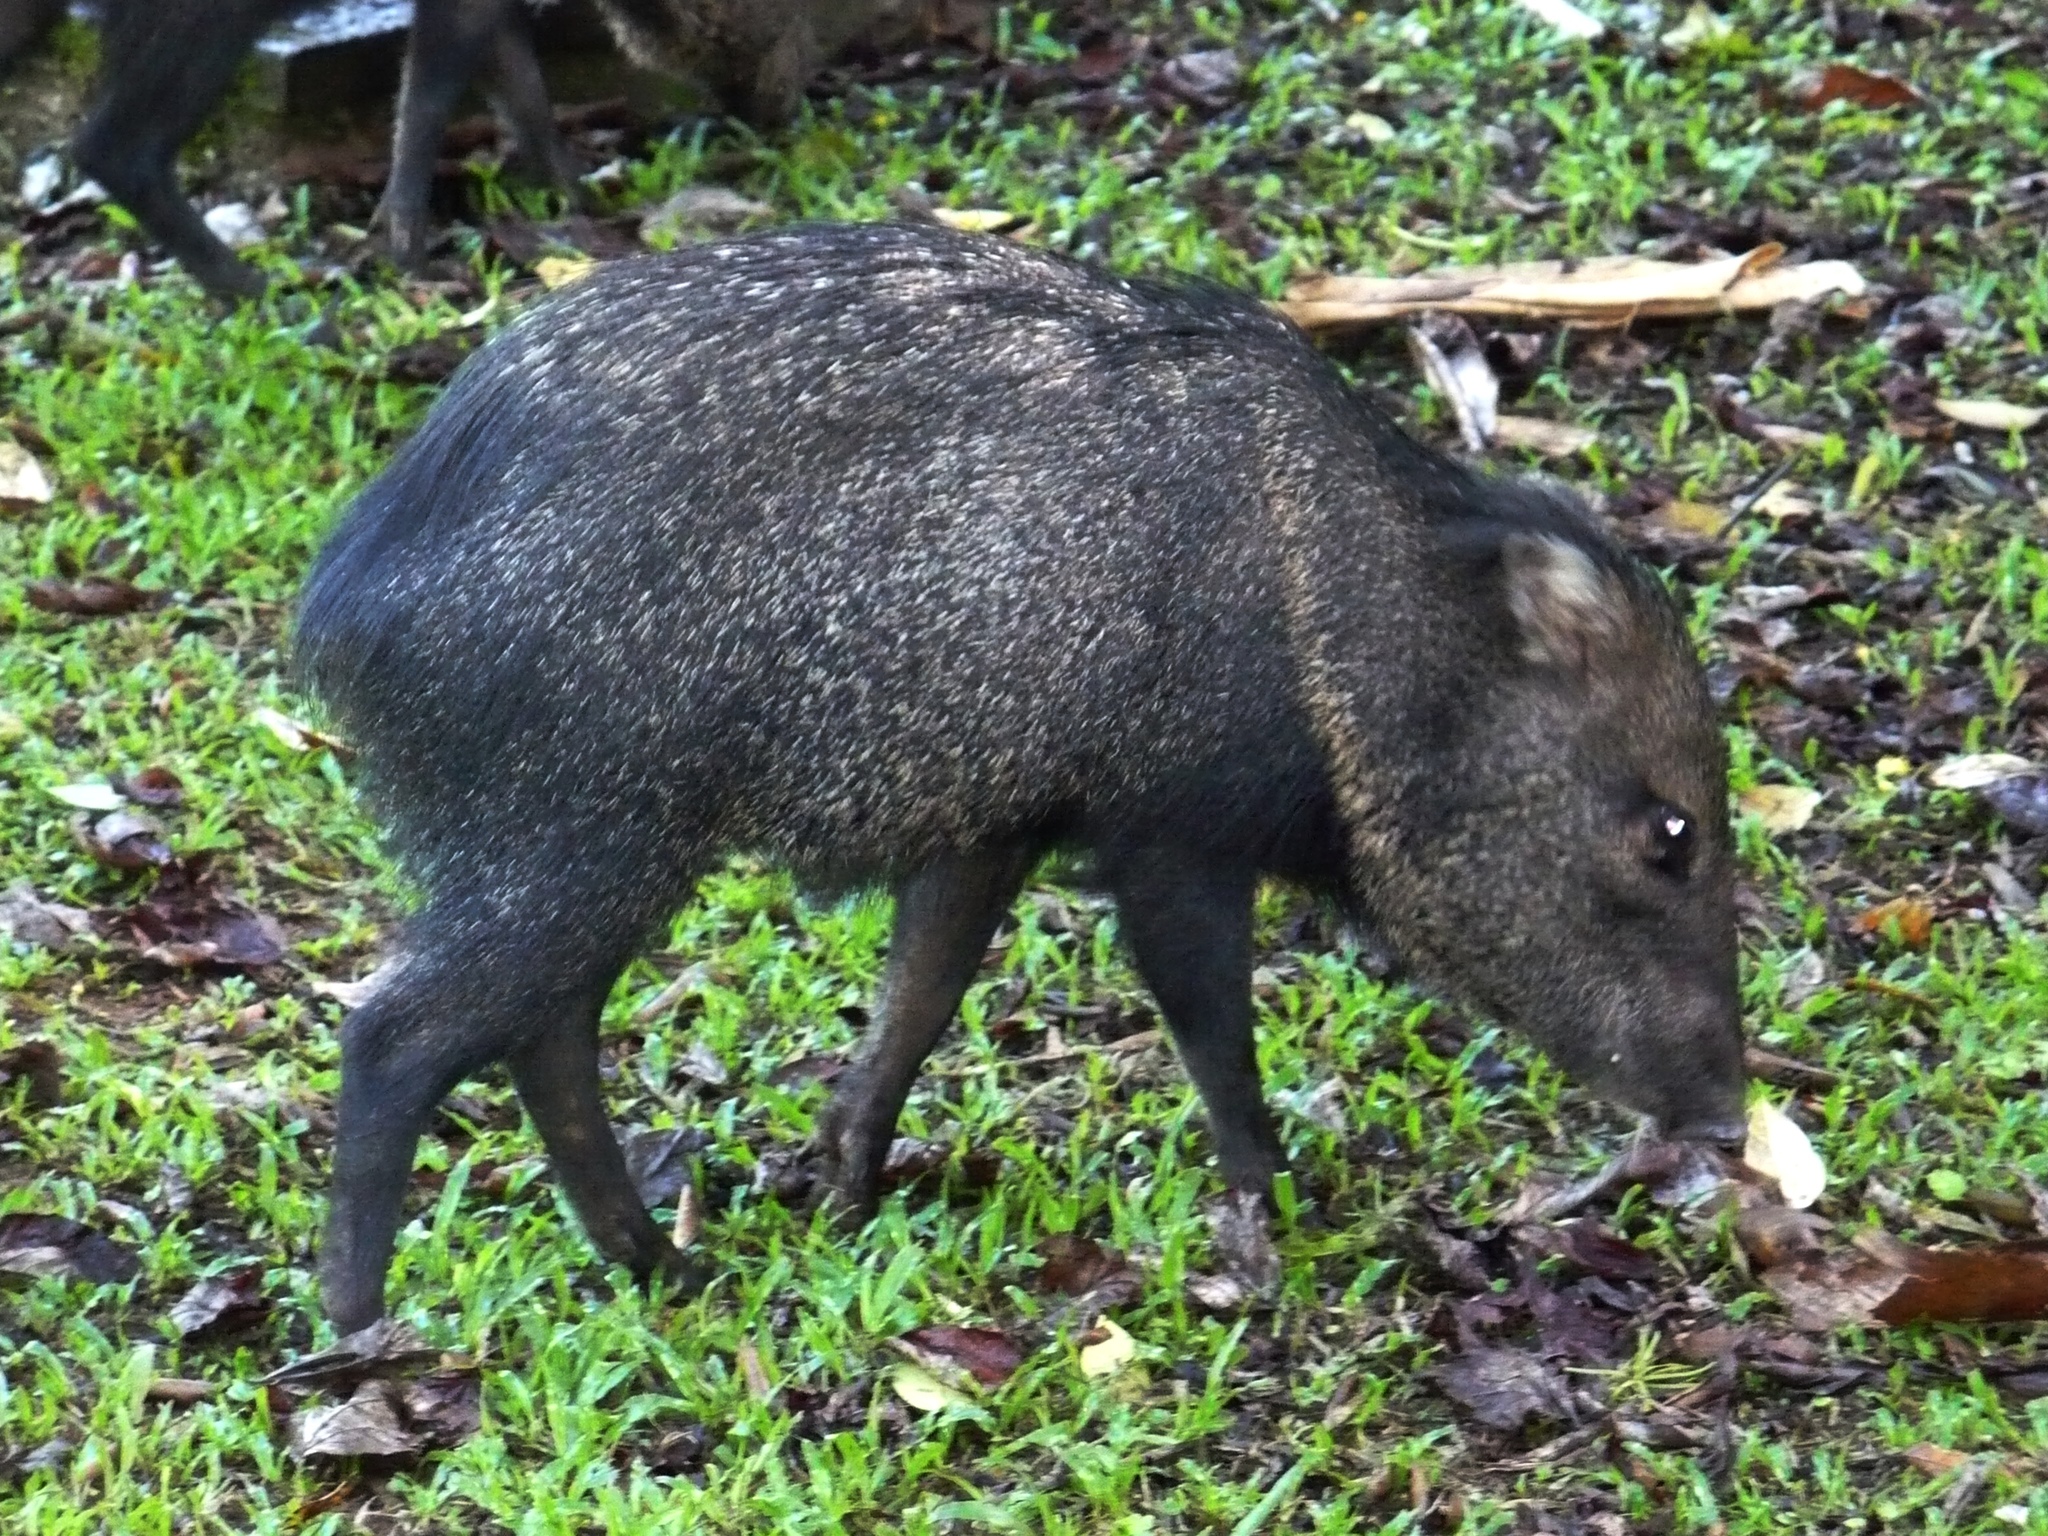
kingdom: Animalia
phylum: Chordata
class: Mammalia
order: Artiodactyla
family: Tayassuidae
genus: Pecari
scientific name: Pecari tajacu
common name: Collared peccary
